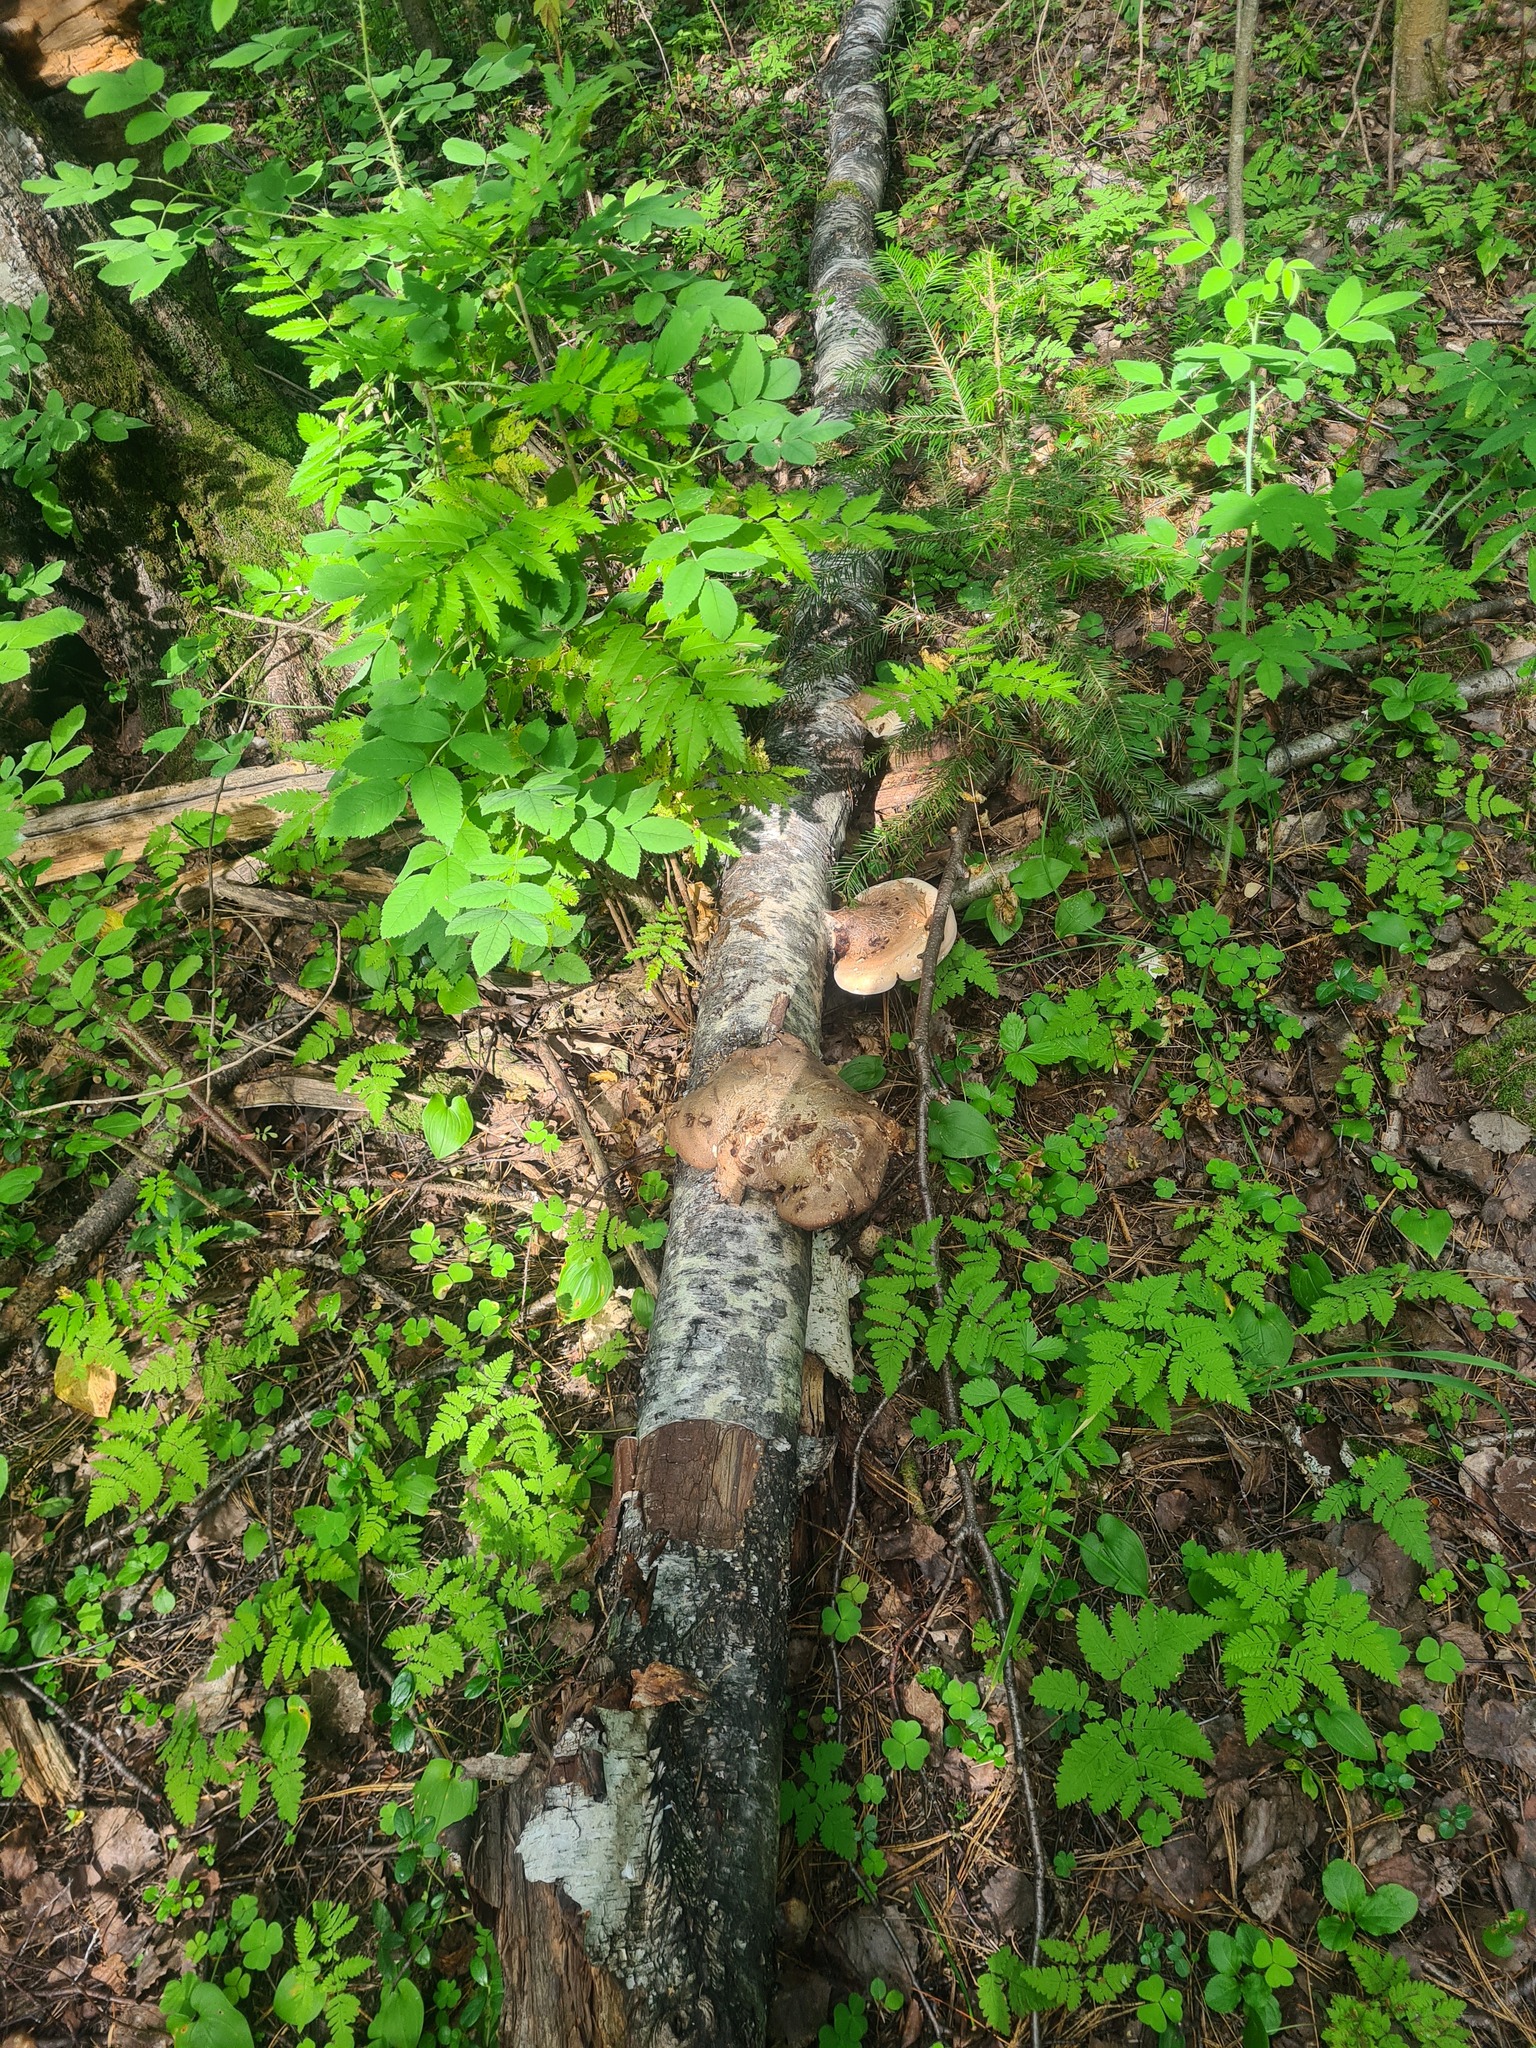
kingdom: Fungi
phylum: Basidiomycota
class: Agaricomycetes
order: Polyporales
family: Fomitopsidaceae
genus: Fomitopsis
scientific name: Fomitopsis betulina
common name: Birch polypore
